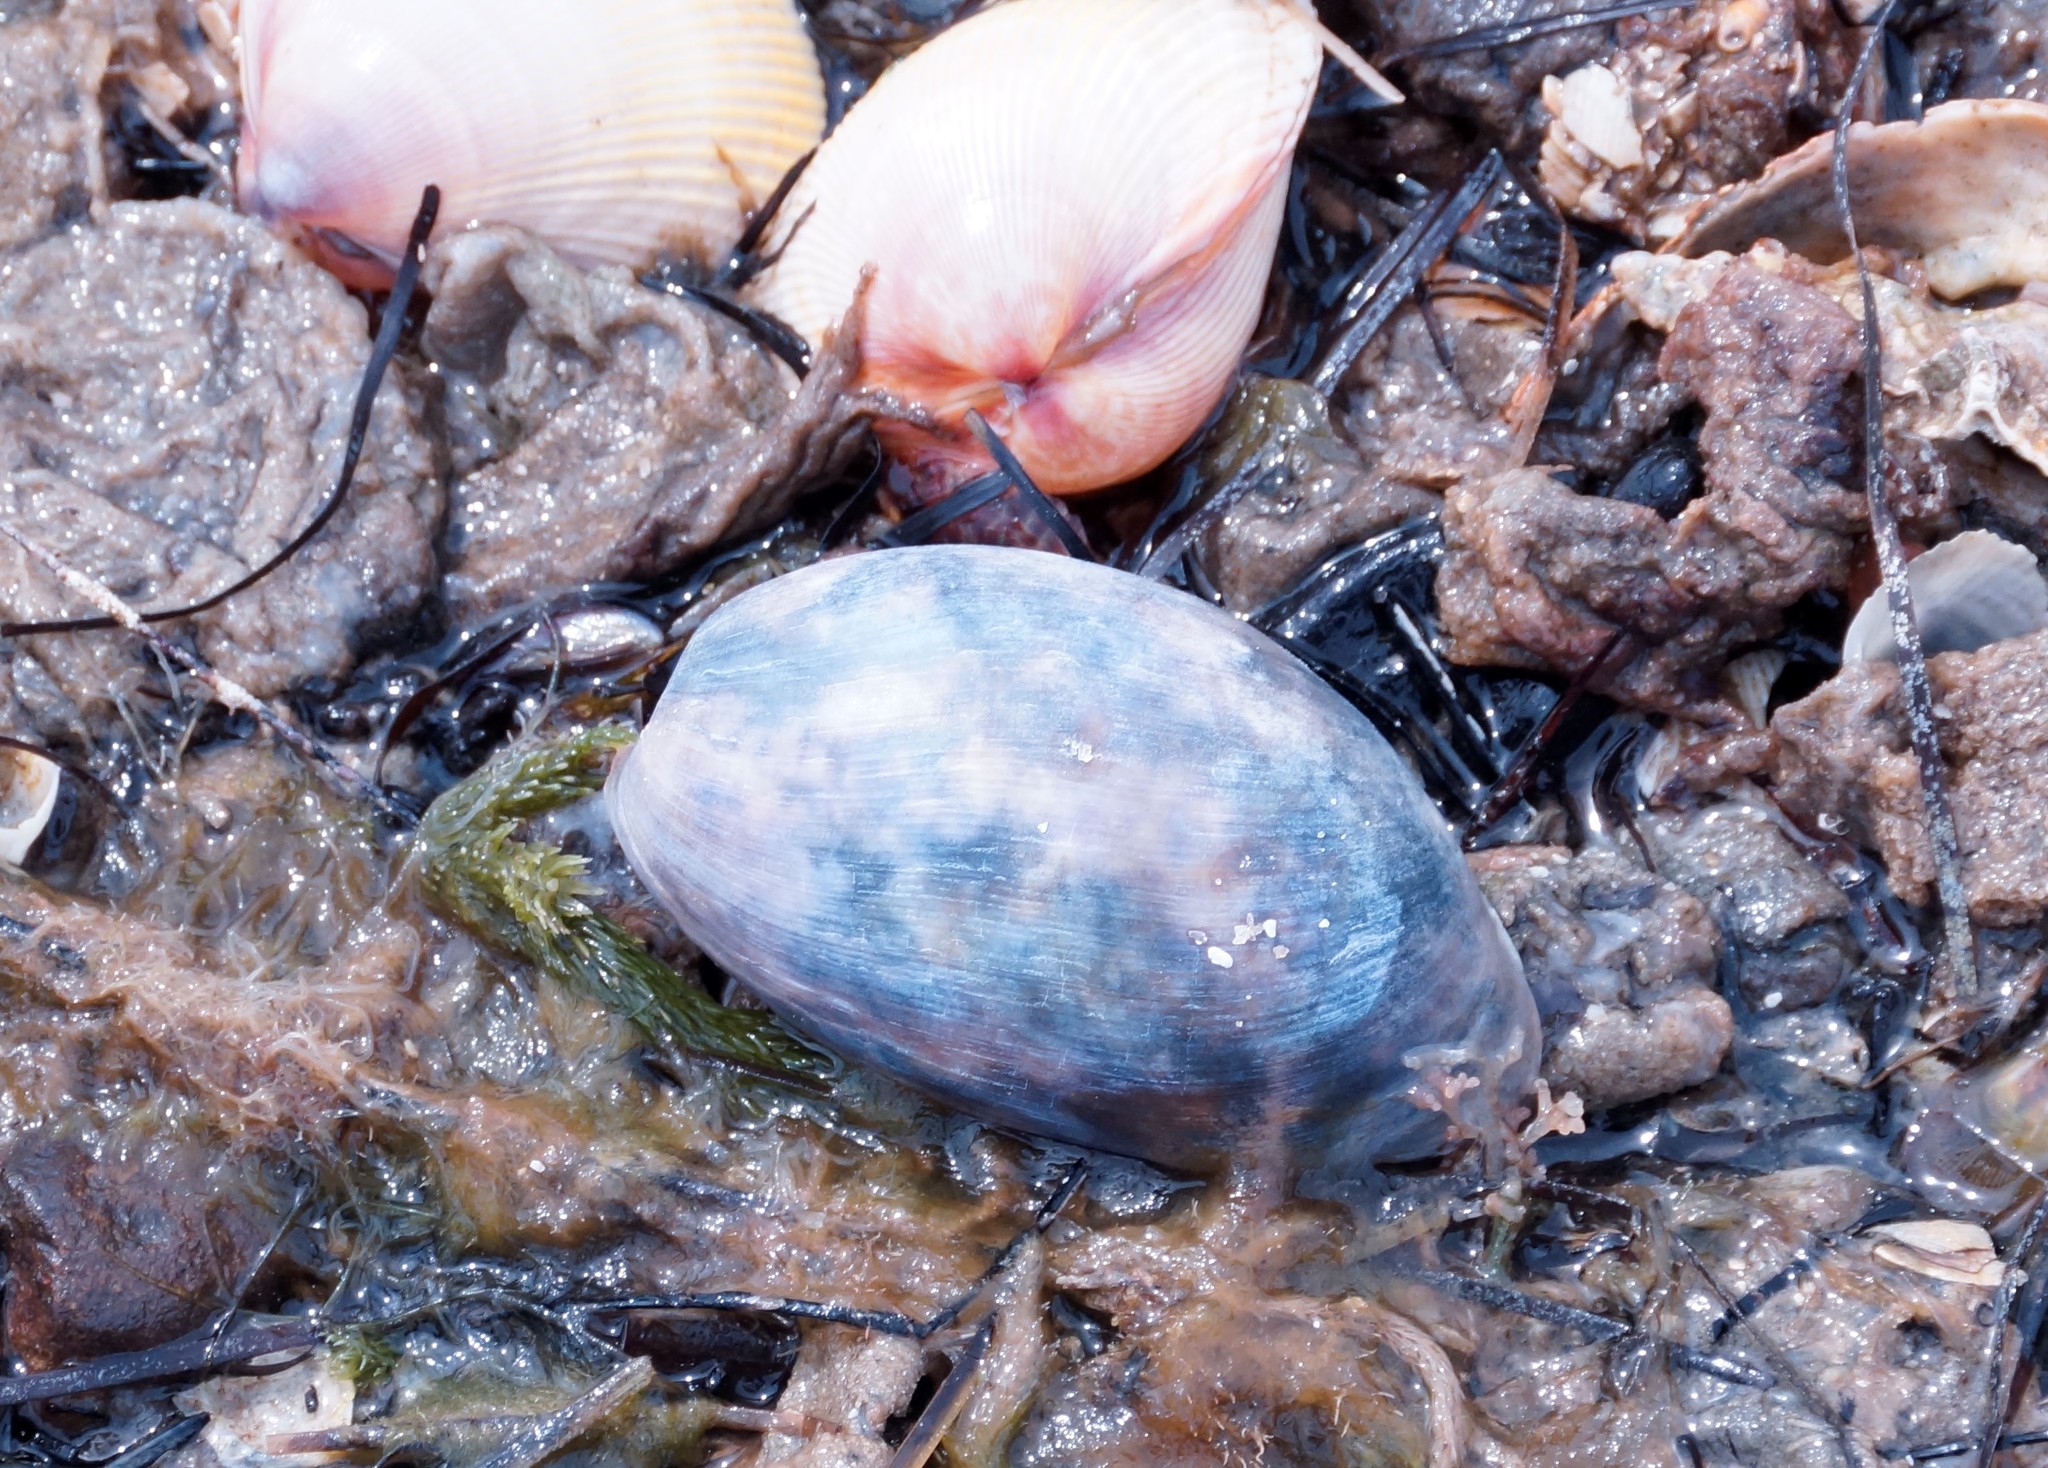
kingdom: Animalia
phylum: Mollusca
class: Gastropoda
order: Cephalaspidea
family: Bullidae
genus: Bulla
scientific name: Bulla quoyii
